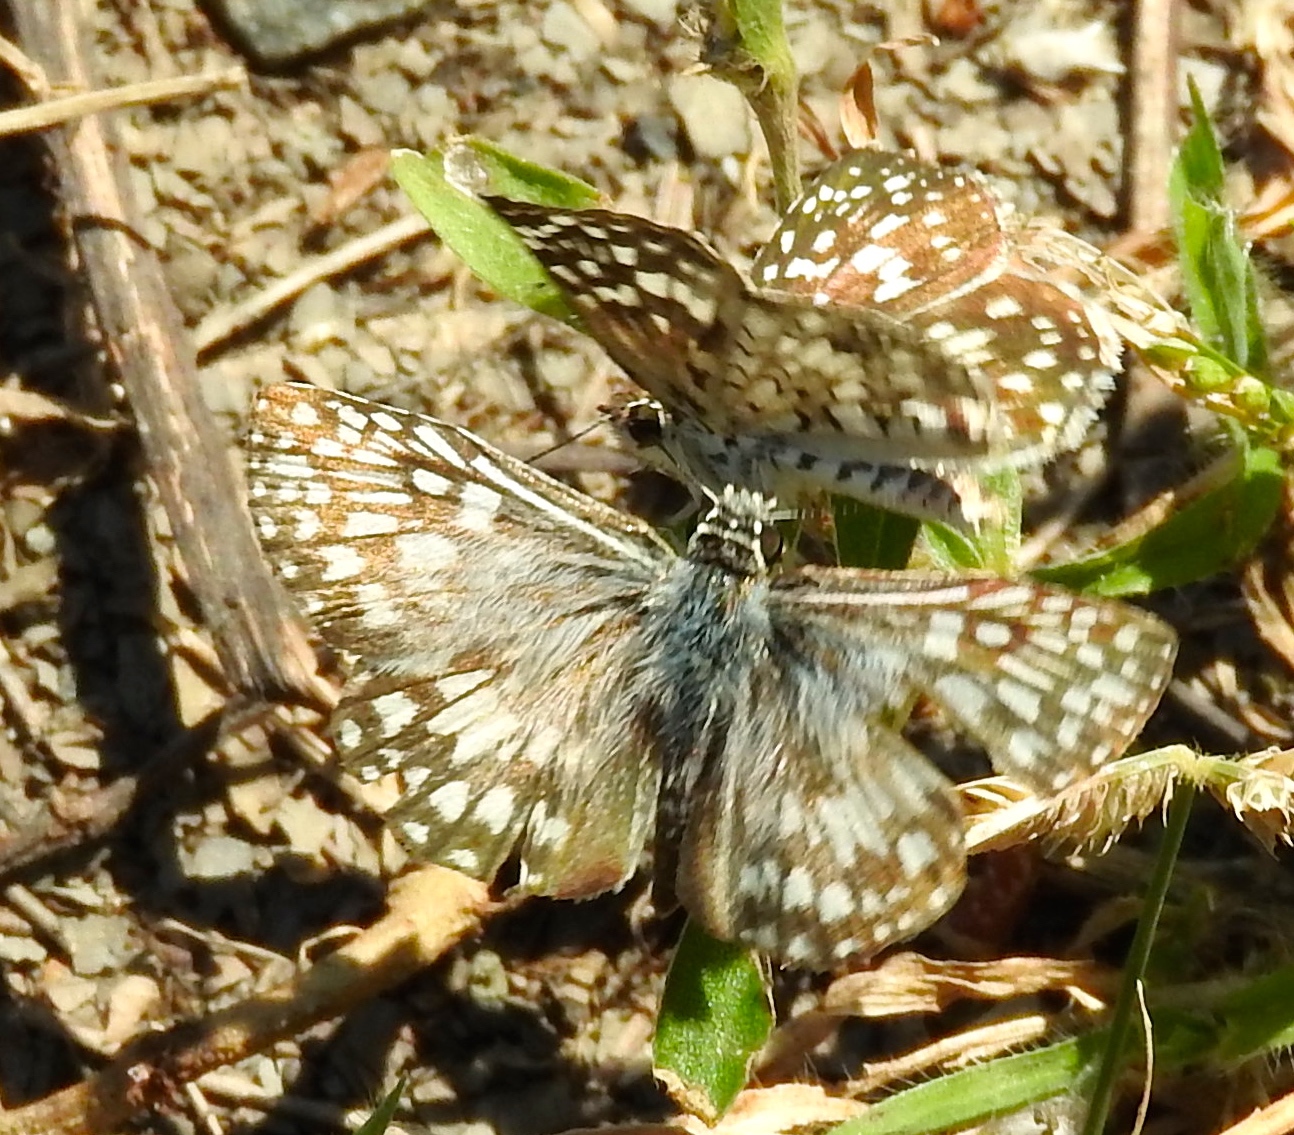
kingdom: Animalia
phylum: Arthropoda
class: Insecta
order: Lepidoptera
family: Hesperiidae
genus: Burnsius
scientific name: Burnsius
